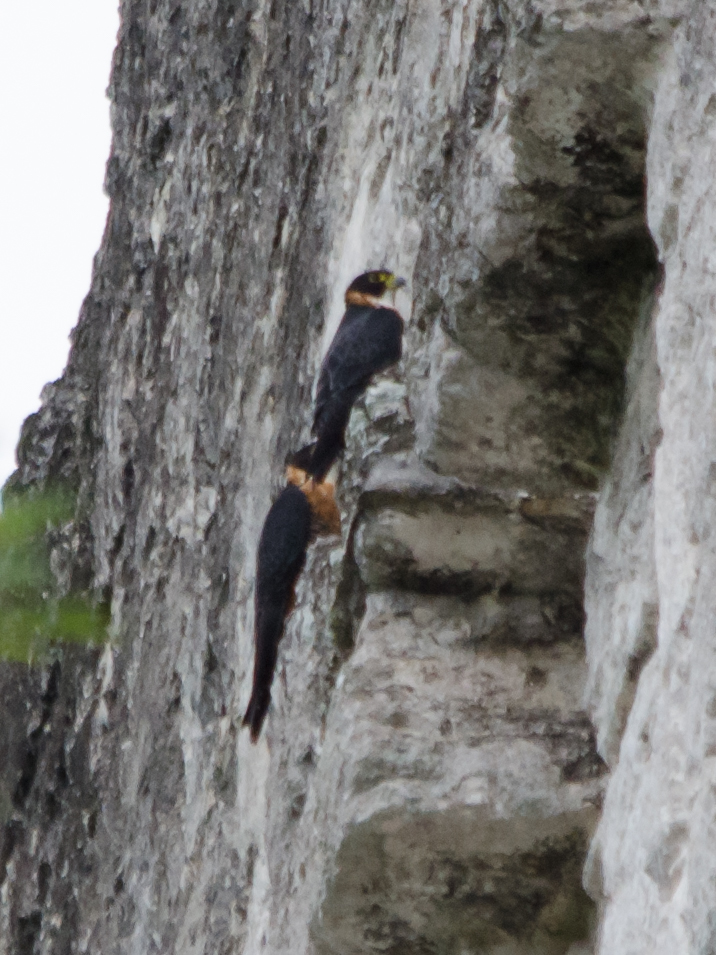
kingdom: Animalia
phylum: Chordata
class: Aves
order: Falconiformes
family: Falconidae
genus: Falco
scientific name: Falco deiroleucus
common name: Orange-breasted falcon
